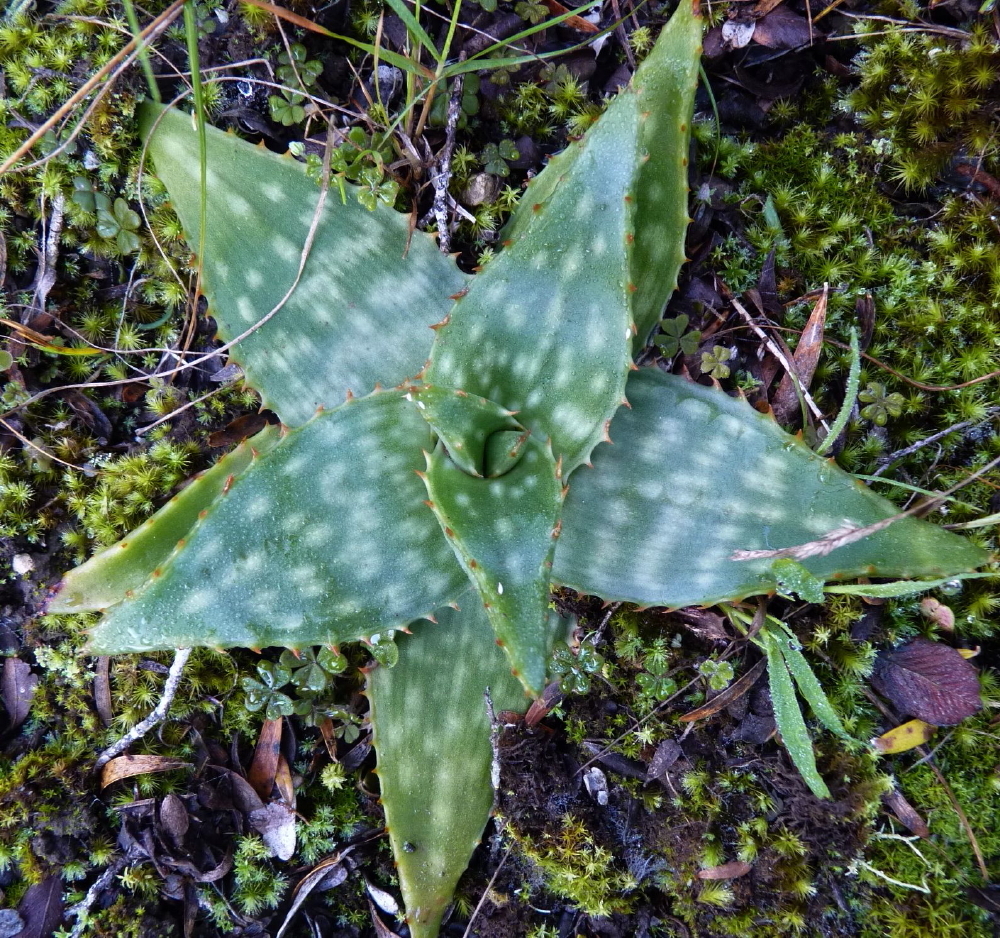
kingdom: Plantae
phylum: Tracheophyta
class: Liliopsida
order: Asparagales
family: Asphodelaceae
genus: Aloe
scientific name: Aloe maculata
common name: Broadleaf aloe
